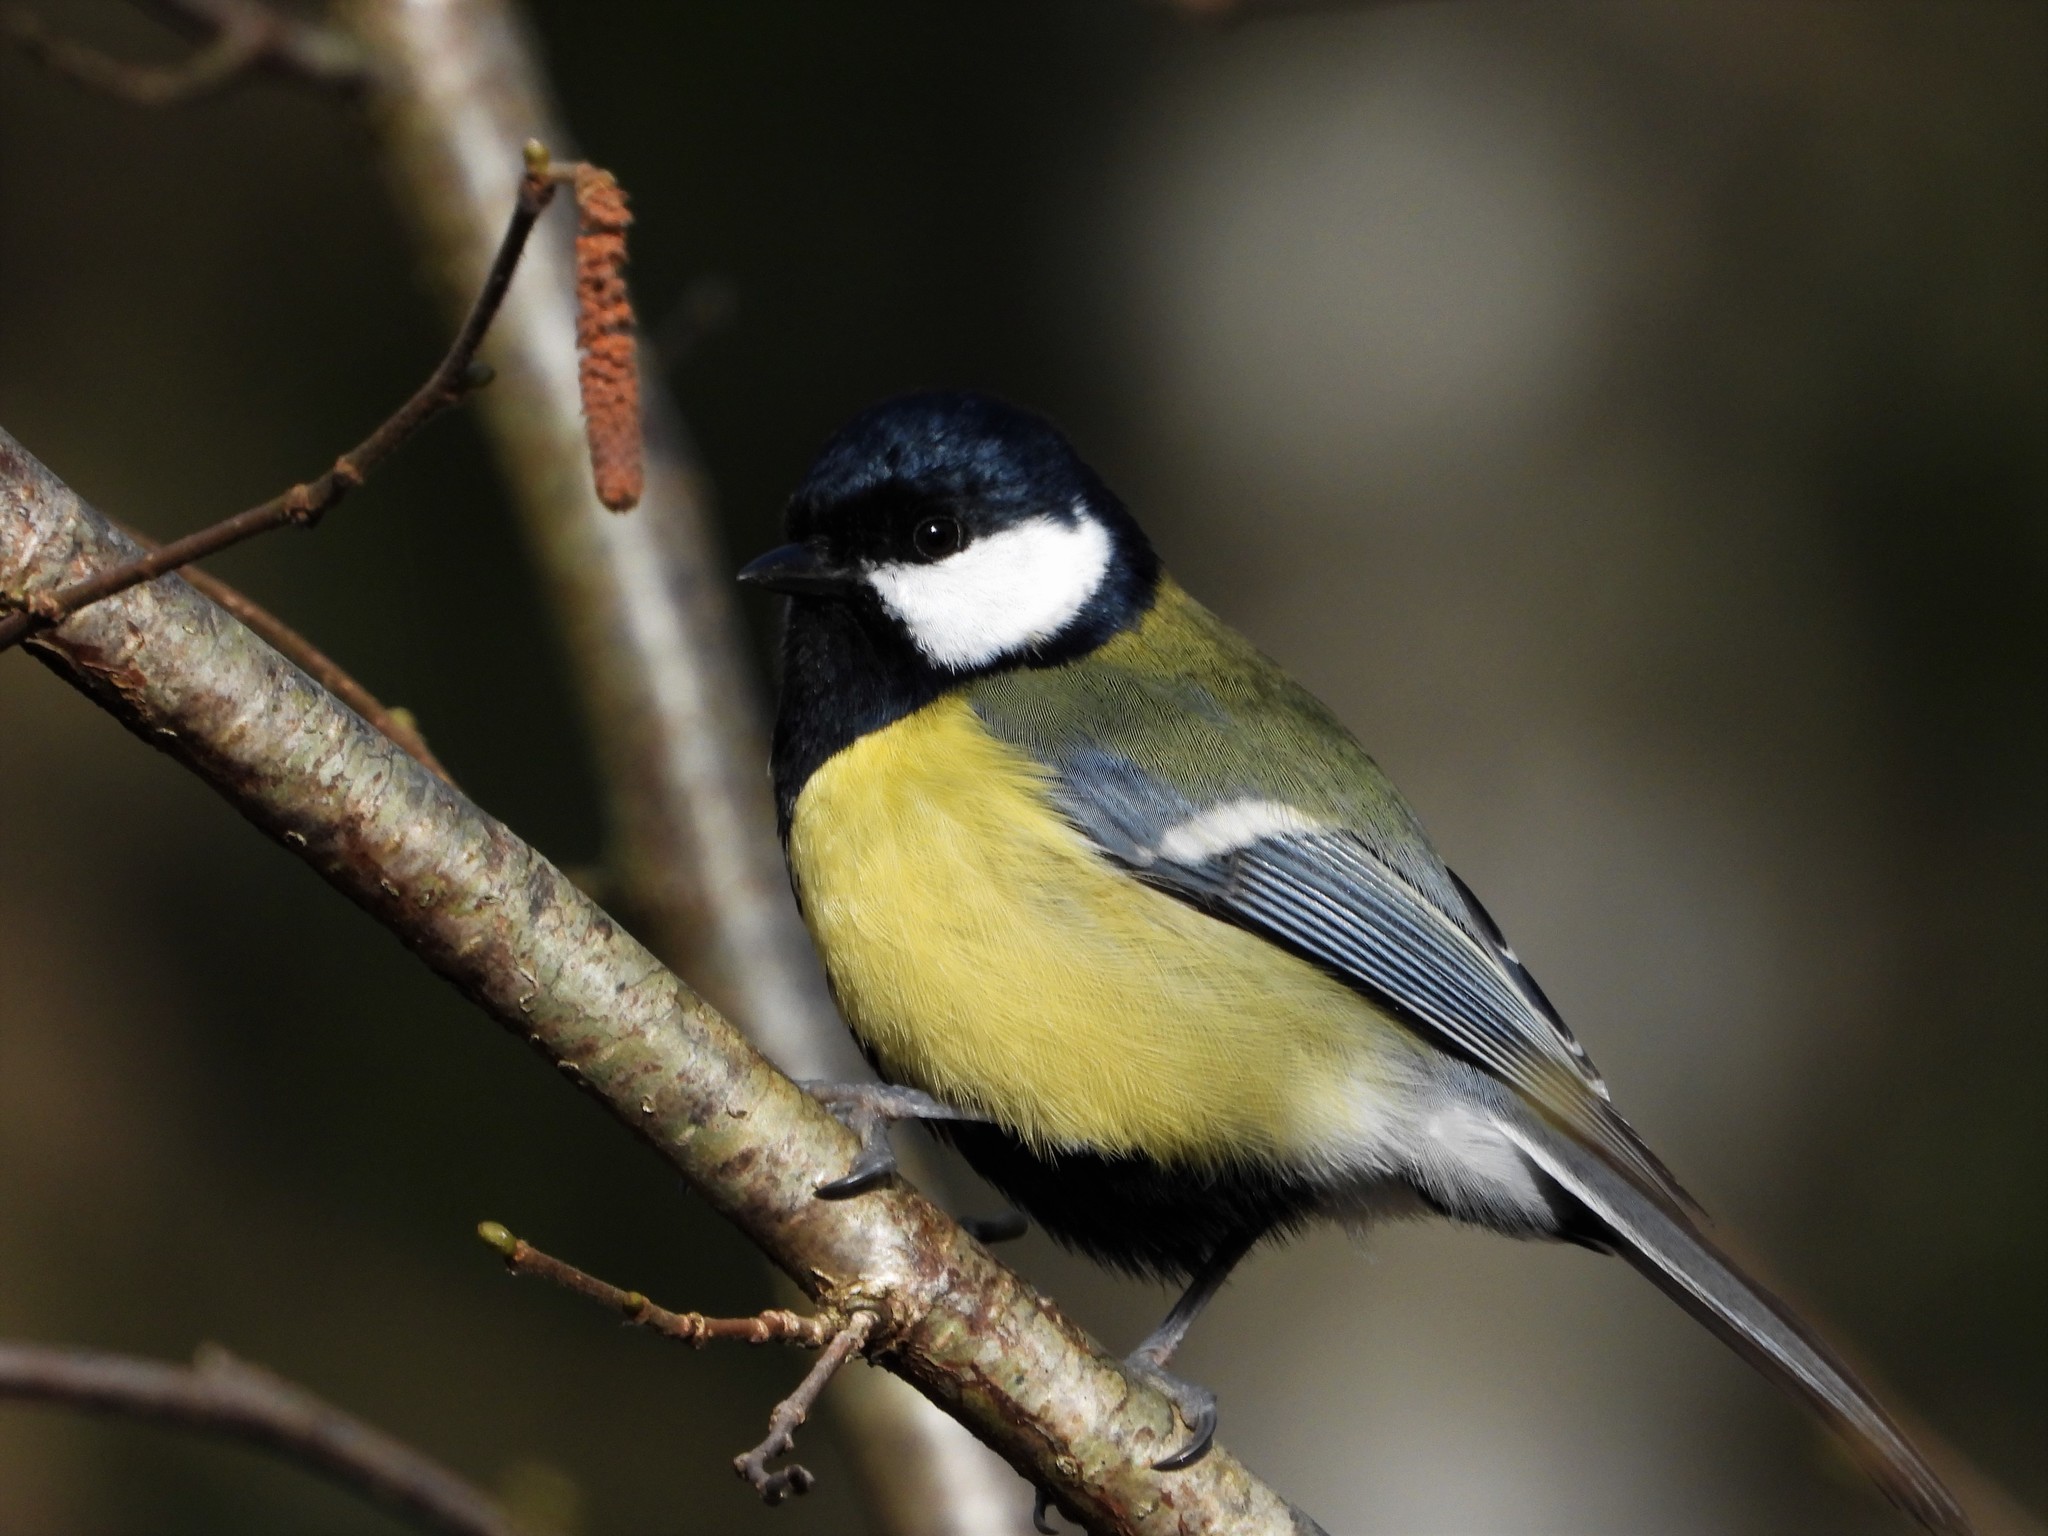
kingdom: Animalia
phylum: Chordata
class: Aves
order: Passeriformes
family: Paridae
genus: Parus
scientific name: Parus major
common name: Great tit
